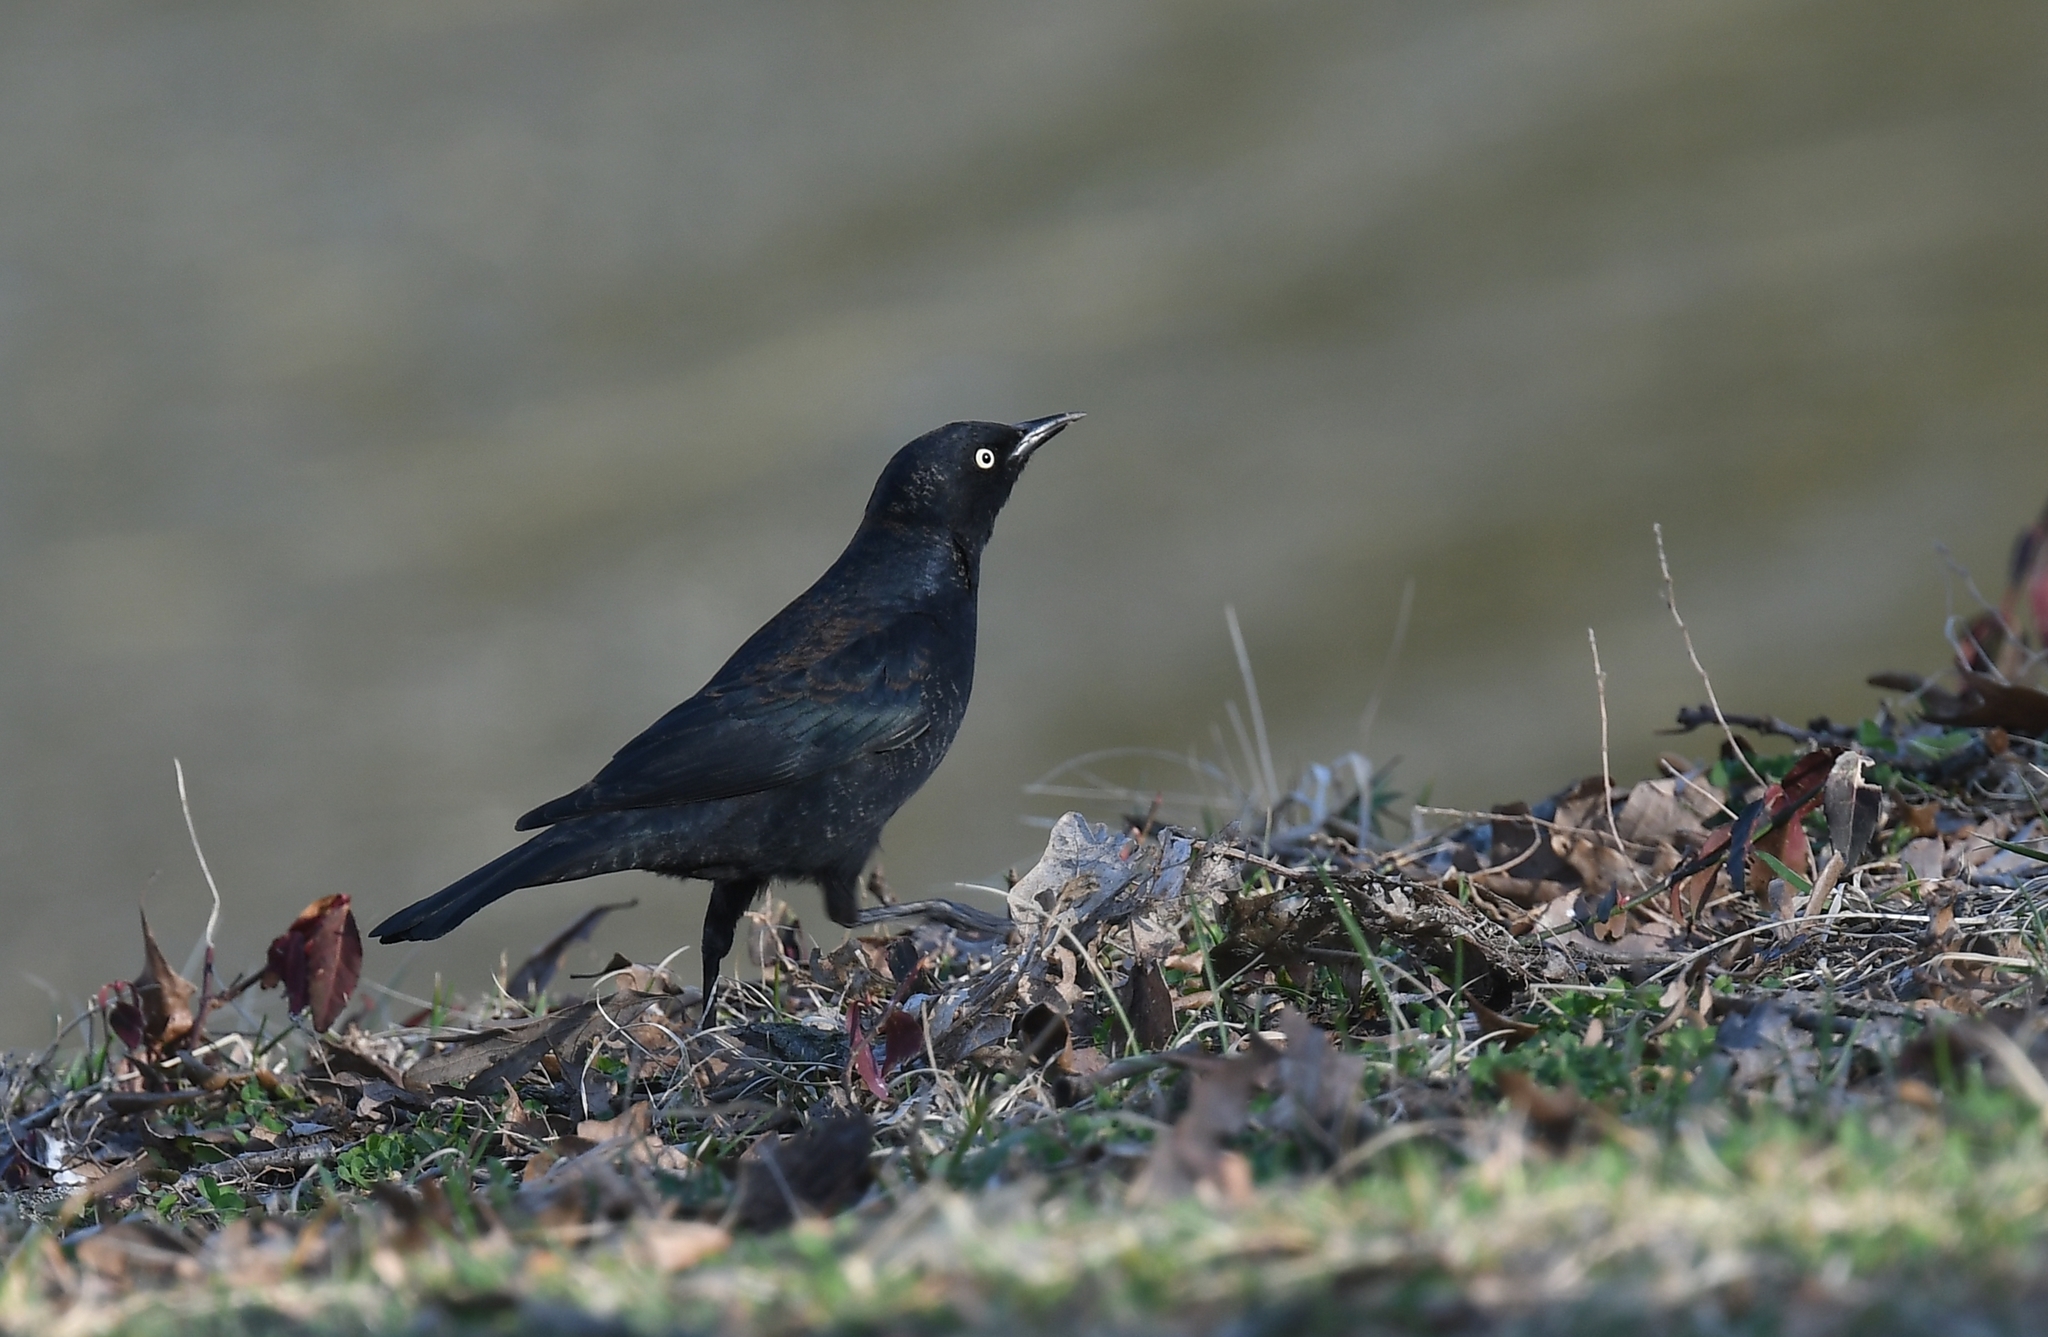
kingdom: Animalia
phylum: Chordata
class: Aves
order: Passeriformes
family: Icteridae
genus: Euphagus
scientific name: Euphagus carolinus
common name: Rusty blackbird
